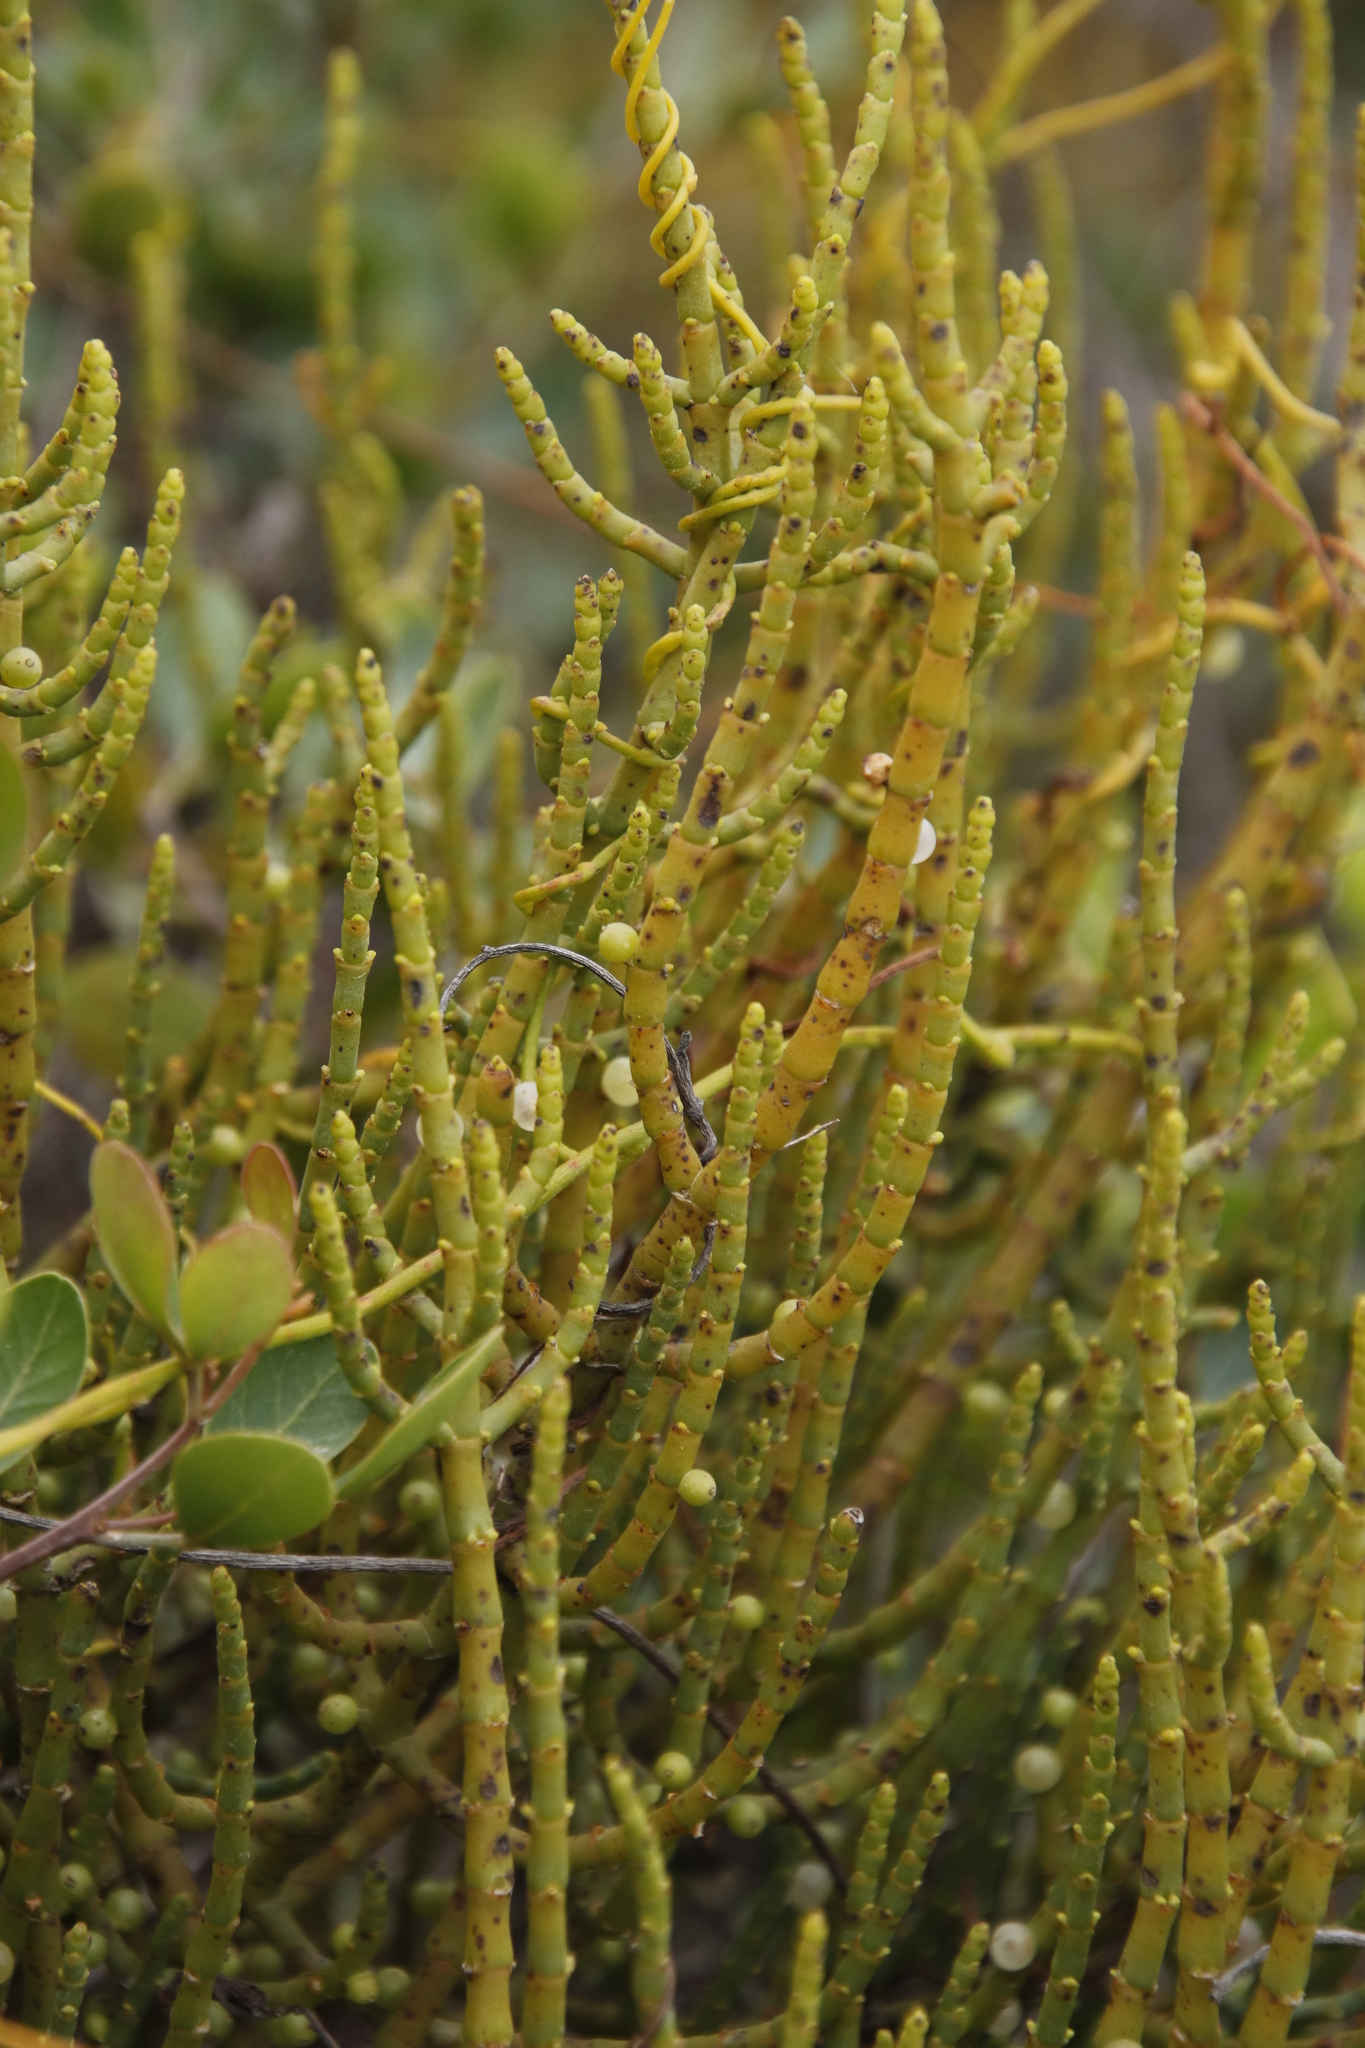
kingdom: Plantae
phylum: Tracheophyta
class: Magnoliopsida
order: Santalales
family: Viscaceae
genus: Viscum
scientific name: Viscum capense
